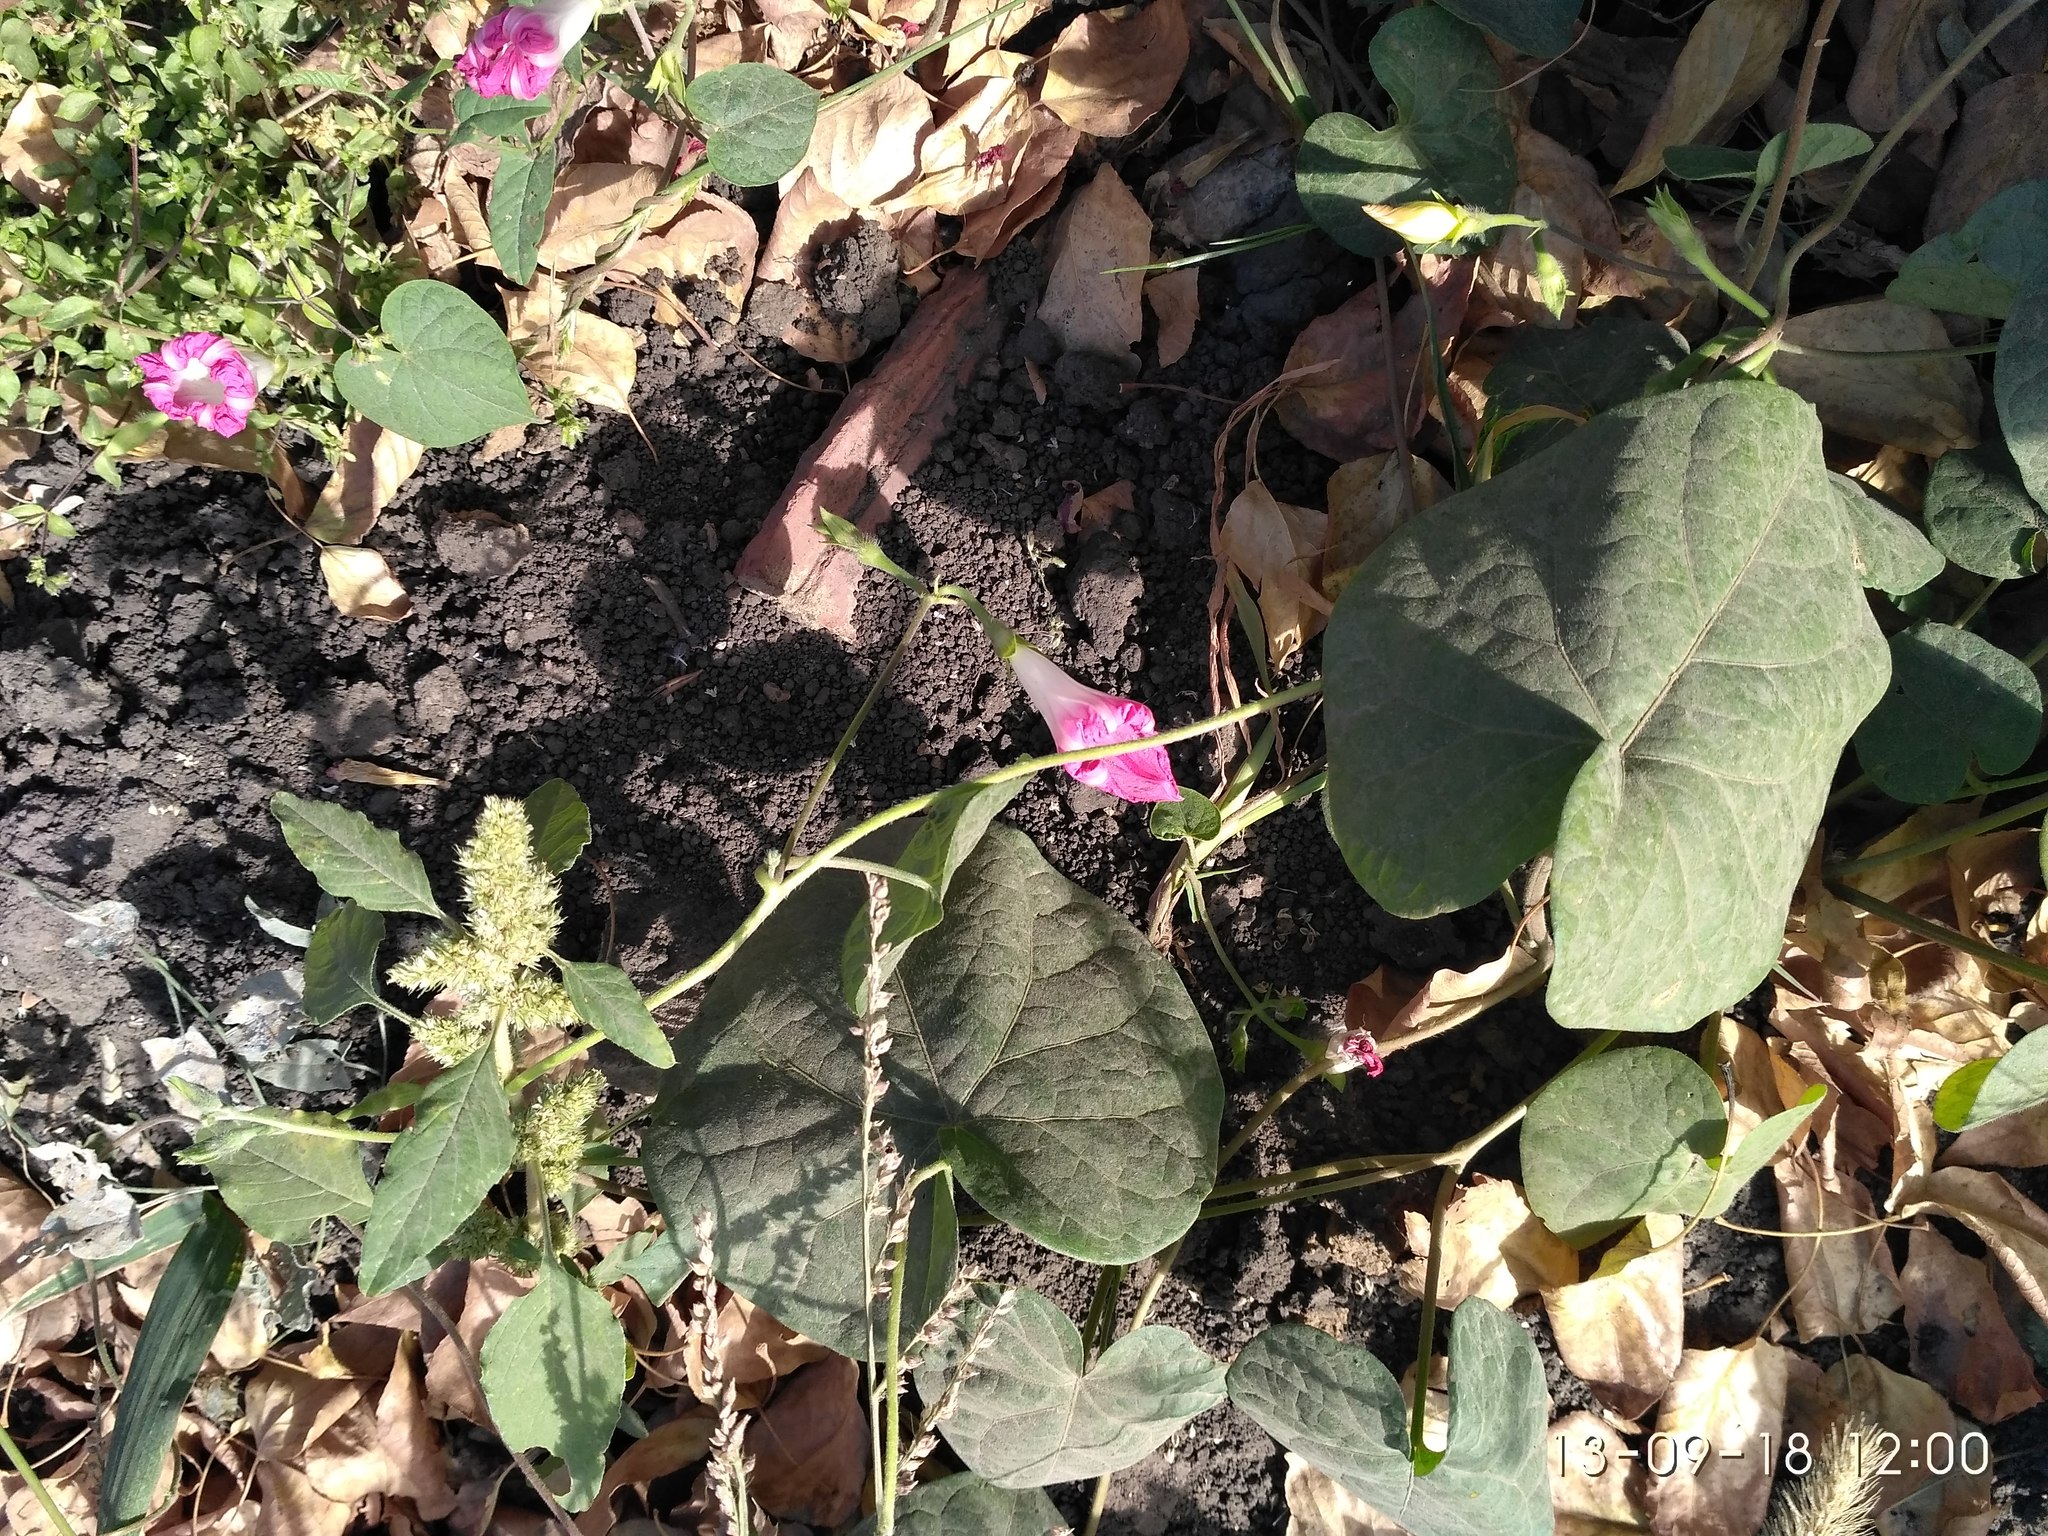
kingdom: Plantae
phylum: Tracheophyta
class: Magnoliopsida
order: Solanales
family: Convolvulaceae
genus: Ipomoea
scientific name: Ipomoea purpurea
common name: Common morning-glory
